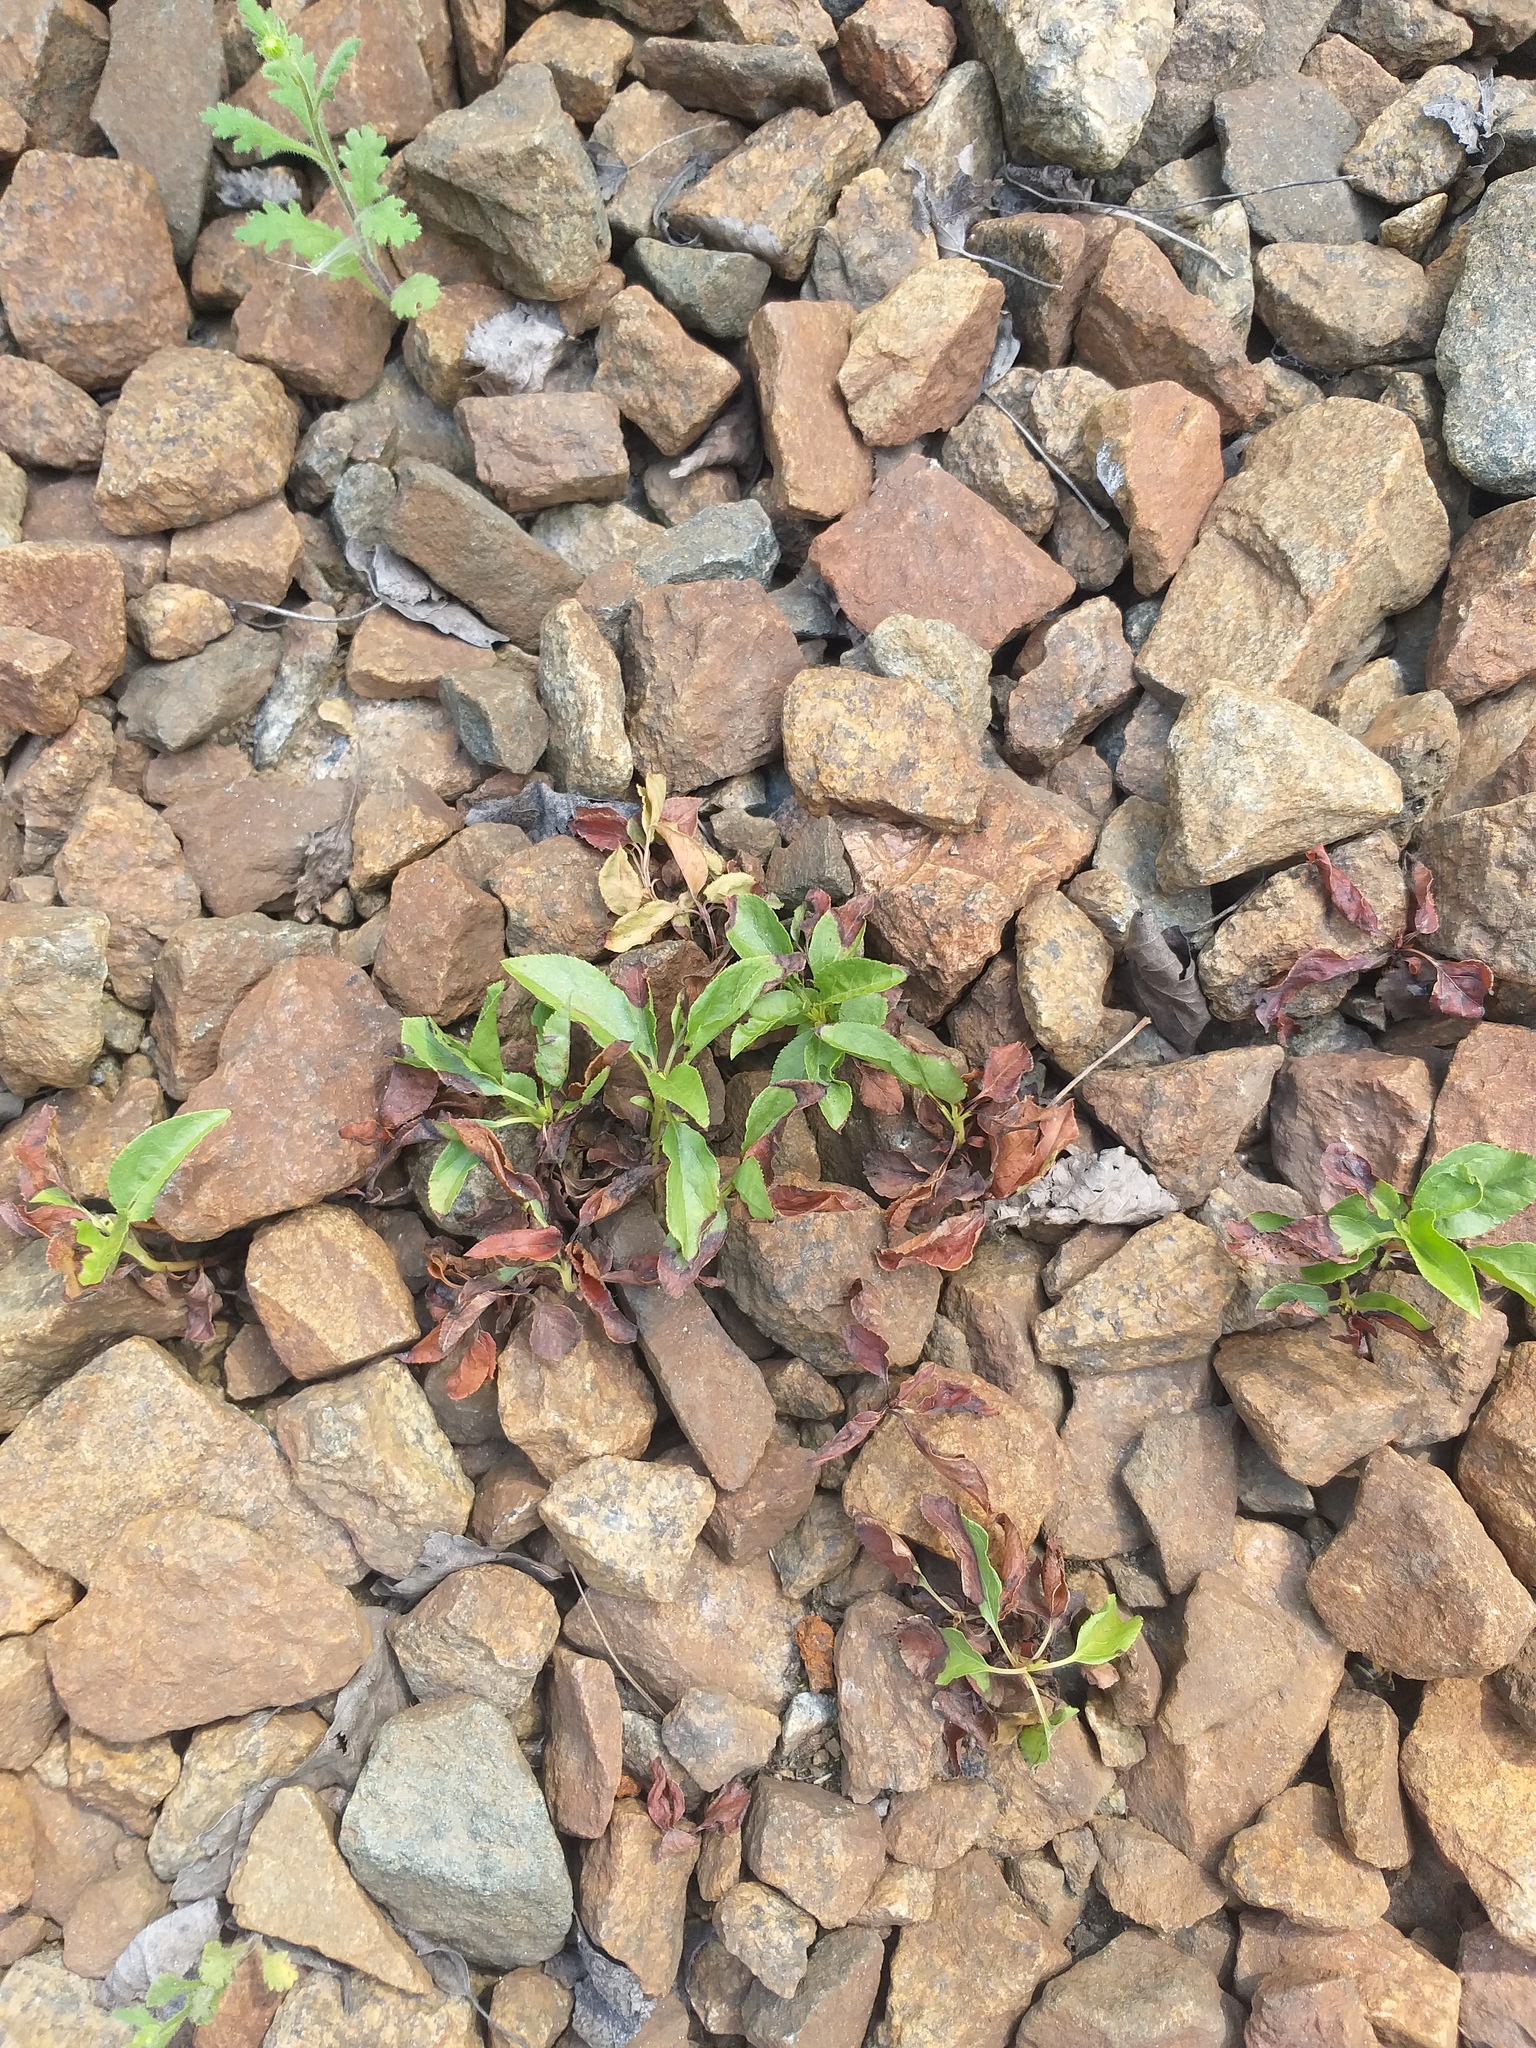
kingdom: Plantae
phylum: Tracheophyta
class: Magnoliopsida
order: Ericales
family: Ericaceae
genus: Orthilia
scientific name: Orthilia secunda
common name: One-sided orthilia
